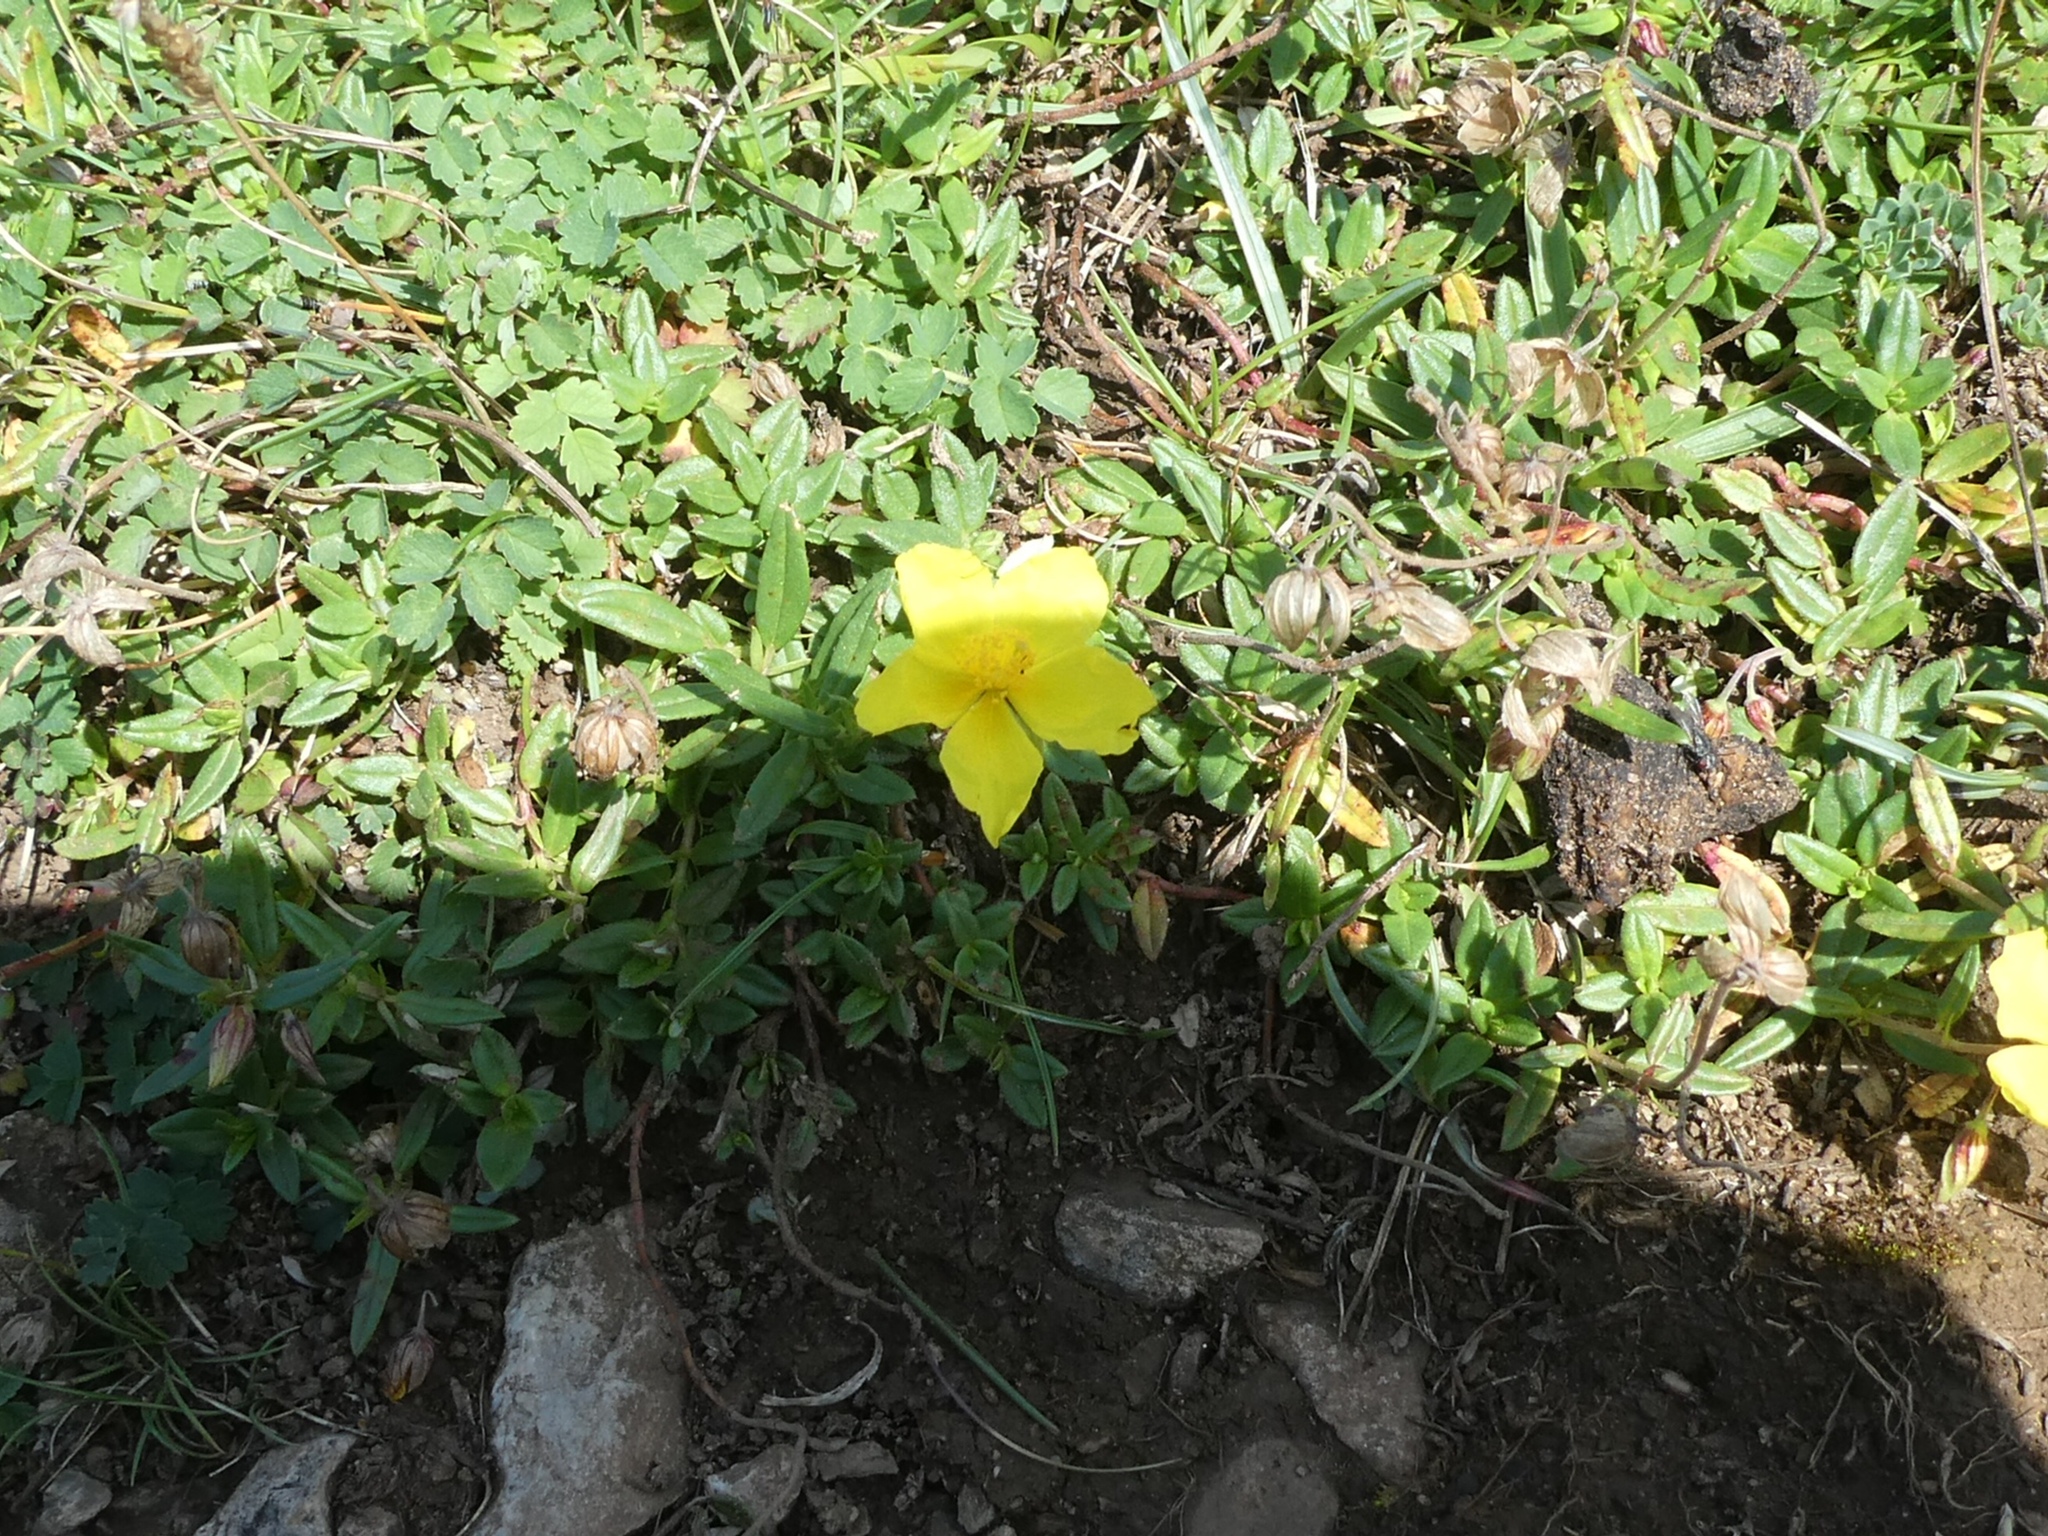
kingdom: Plantae
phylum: Tracheophyta
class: Magnoliopsida
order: Malvales
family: Cistaceae
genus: Helianthemum
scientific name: Helianthemum nummularium
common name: Common rock-rose
